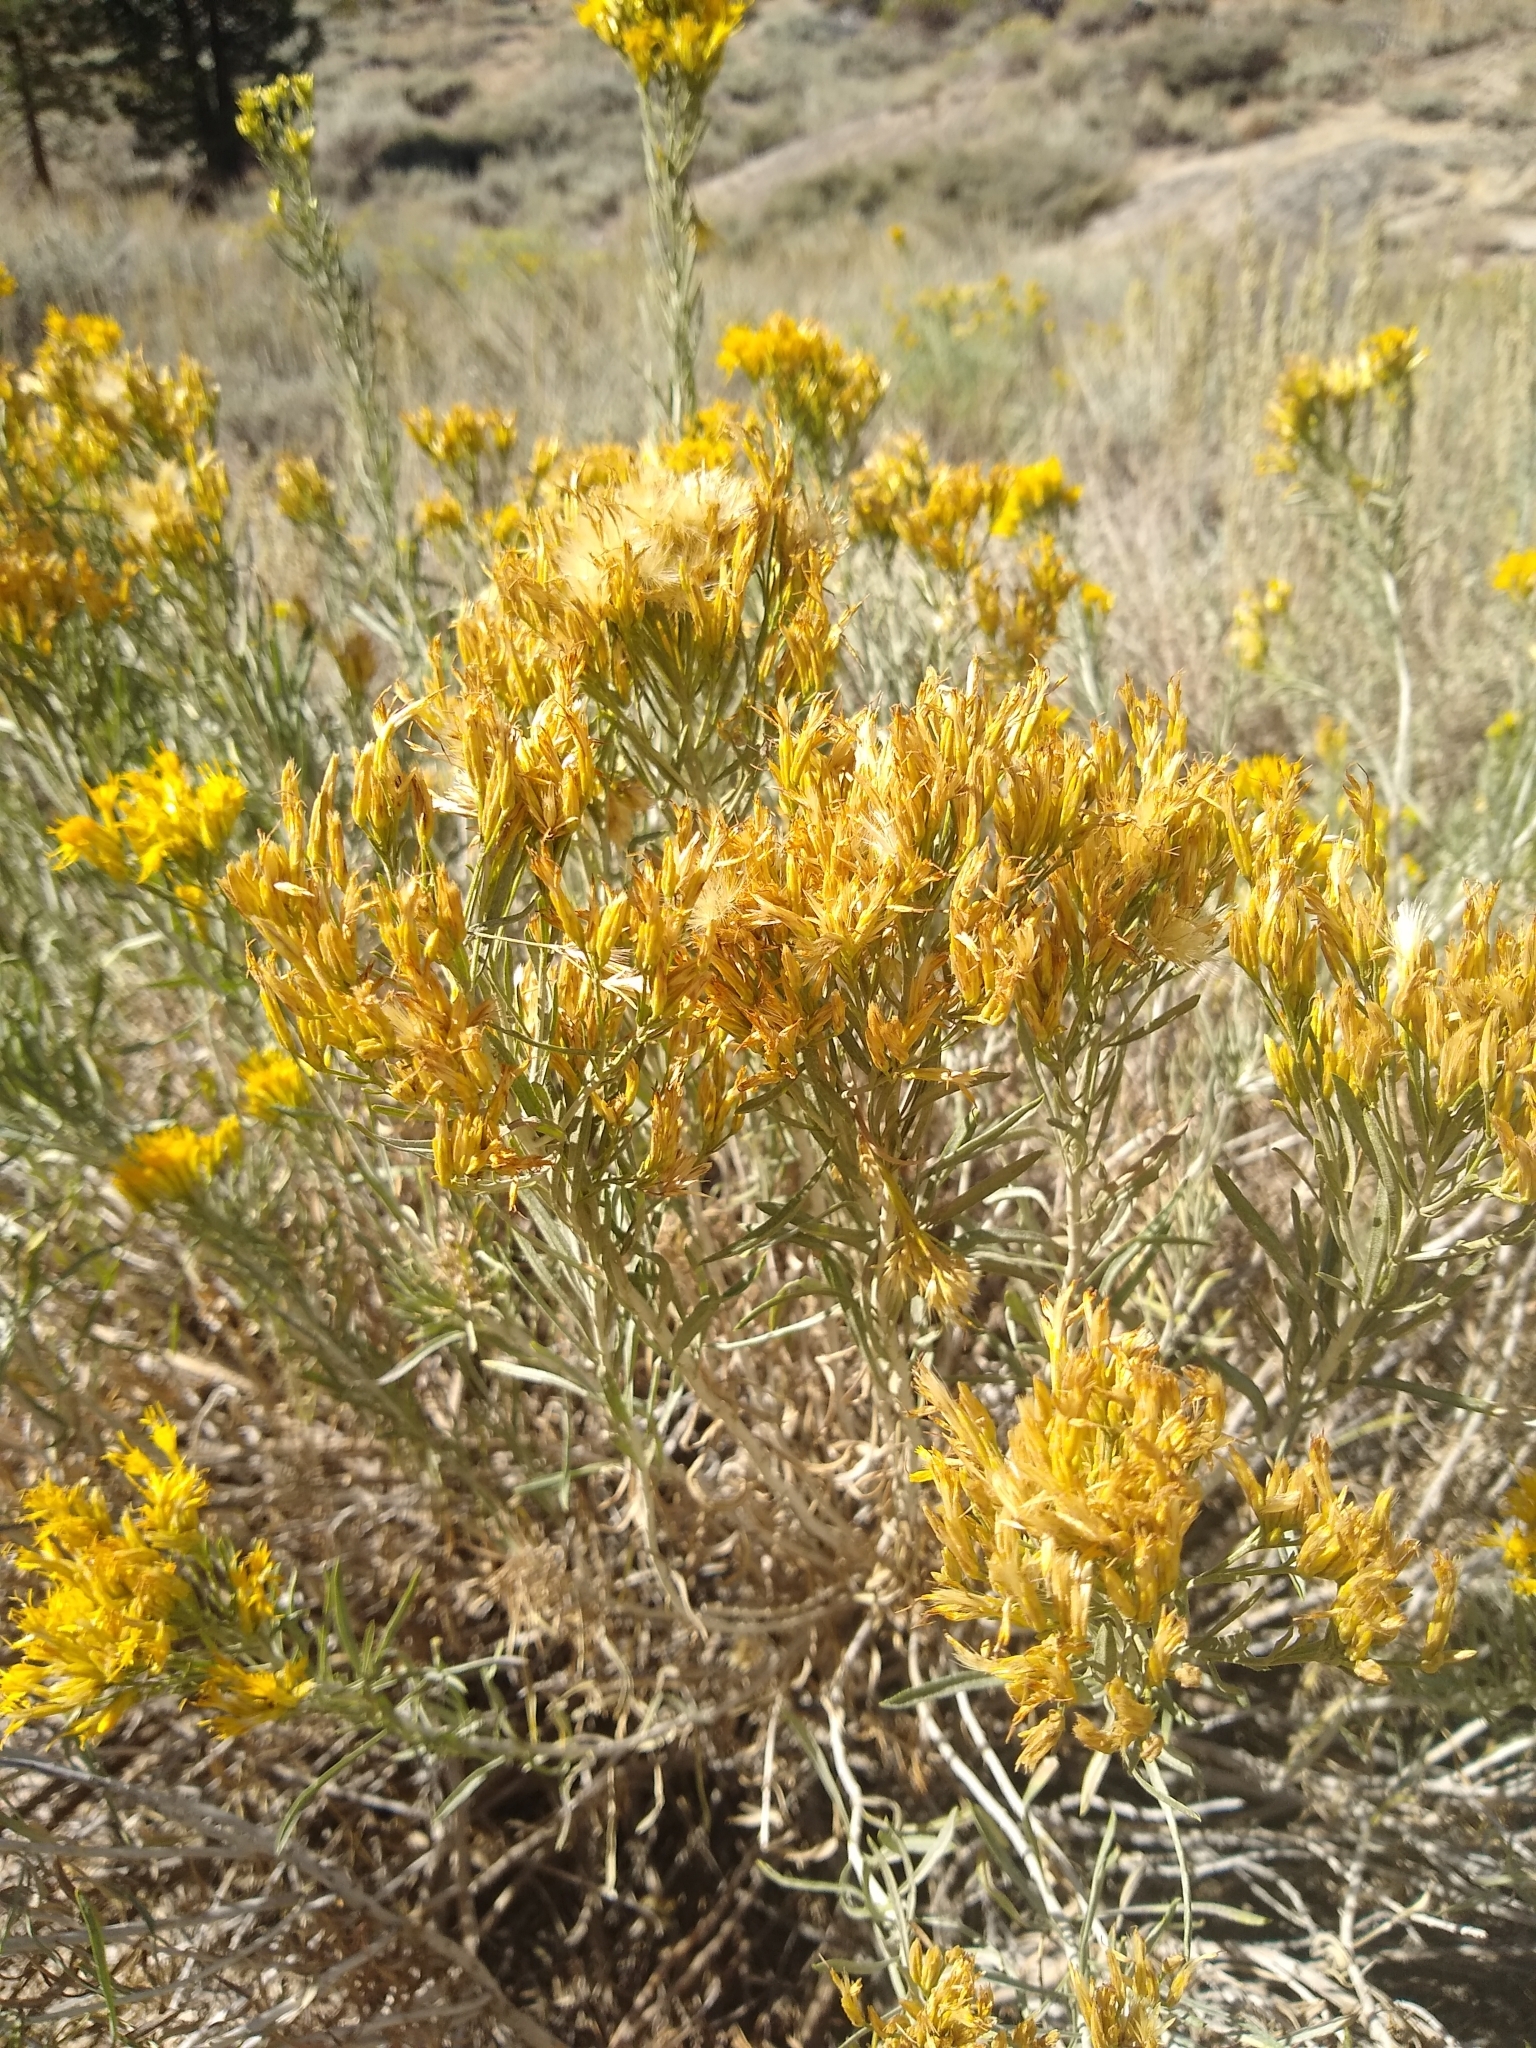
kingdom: Plantae
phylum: Tracheophyta
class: Magnoliopsida
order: Asterales
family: Asteraceae
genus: Chrysothamnus
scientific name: Chrysothamnus viscidiflorus
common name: Yellow rabbitbrush
